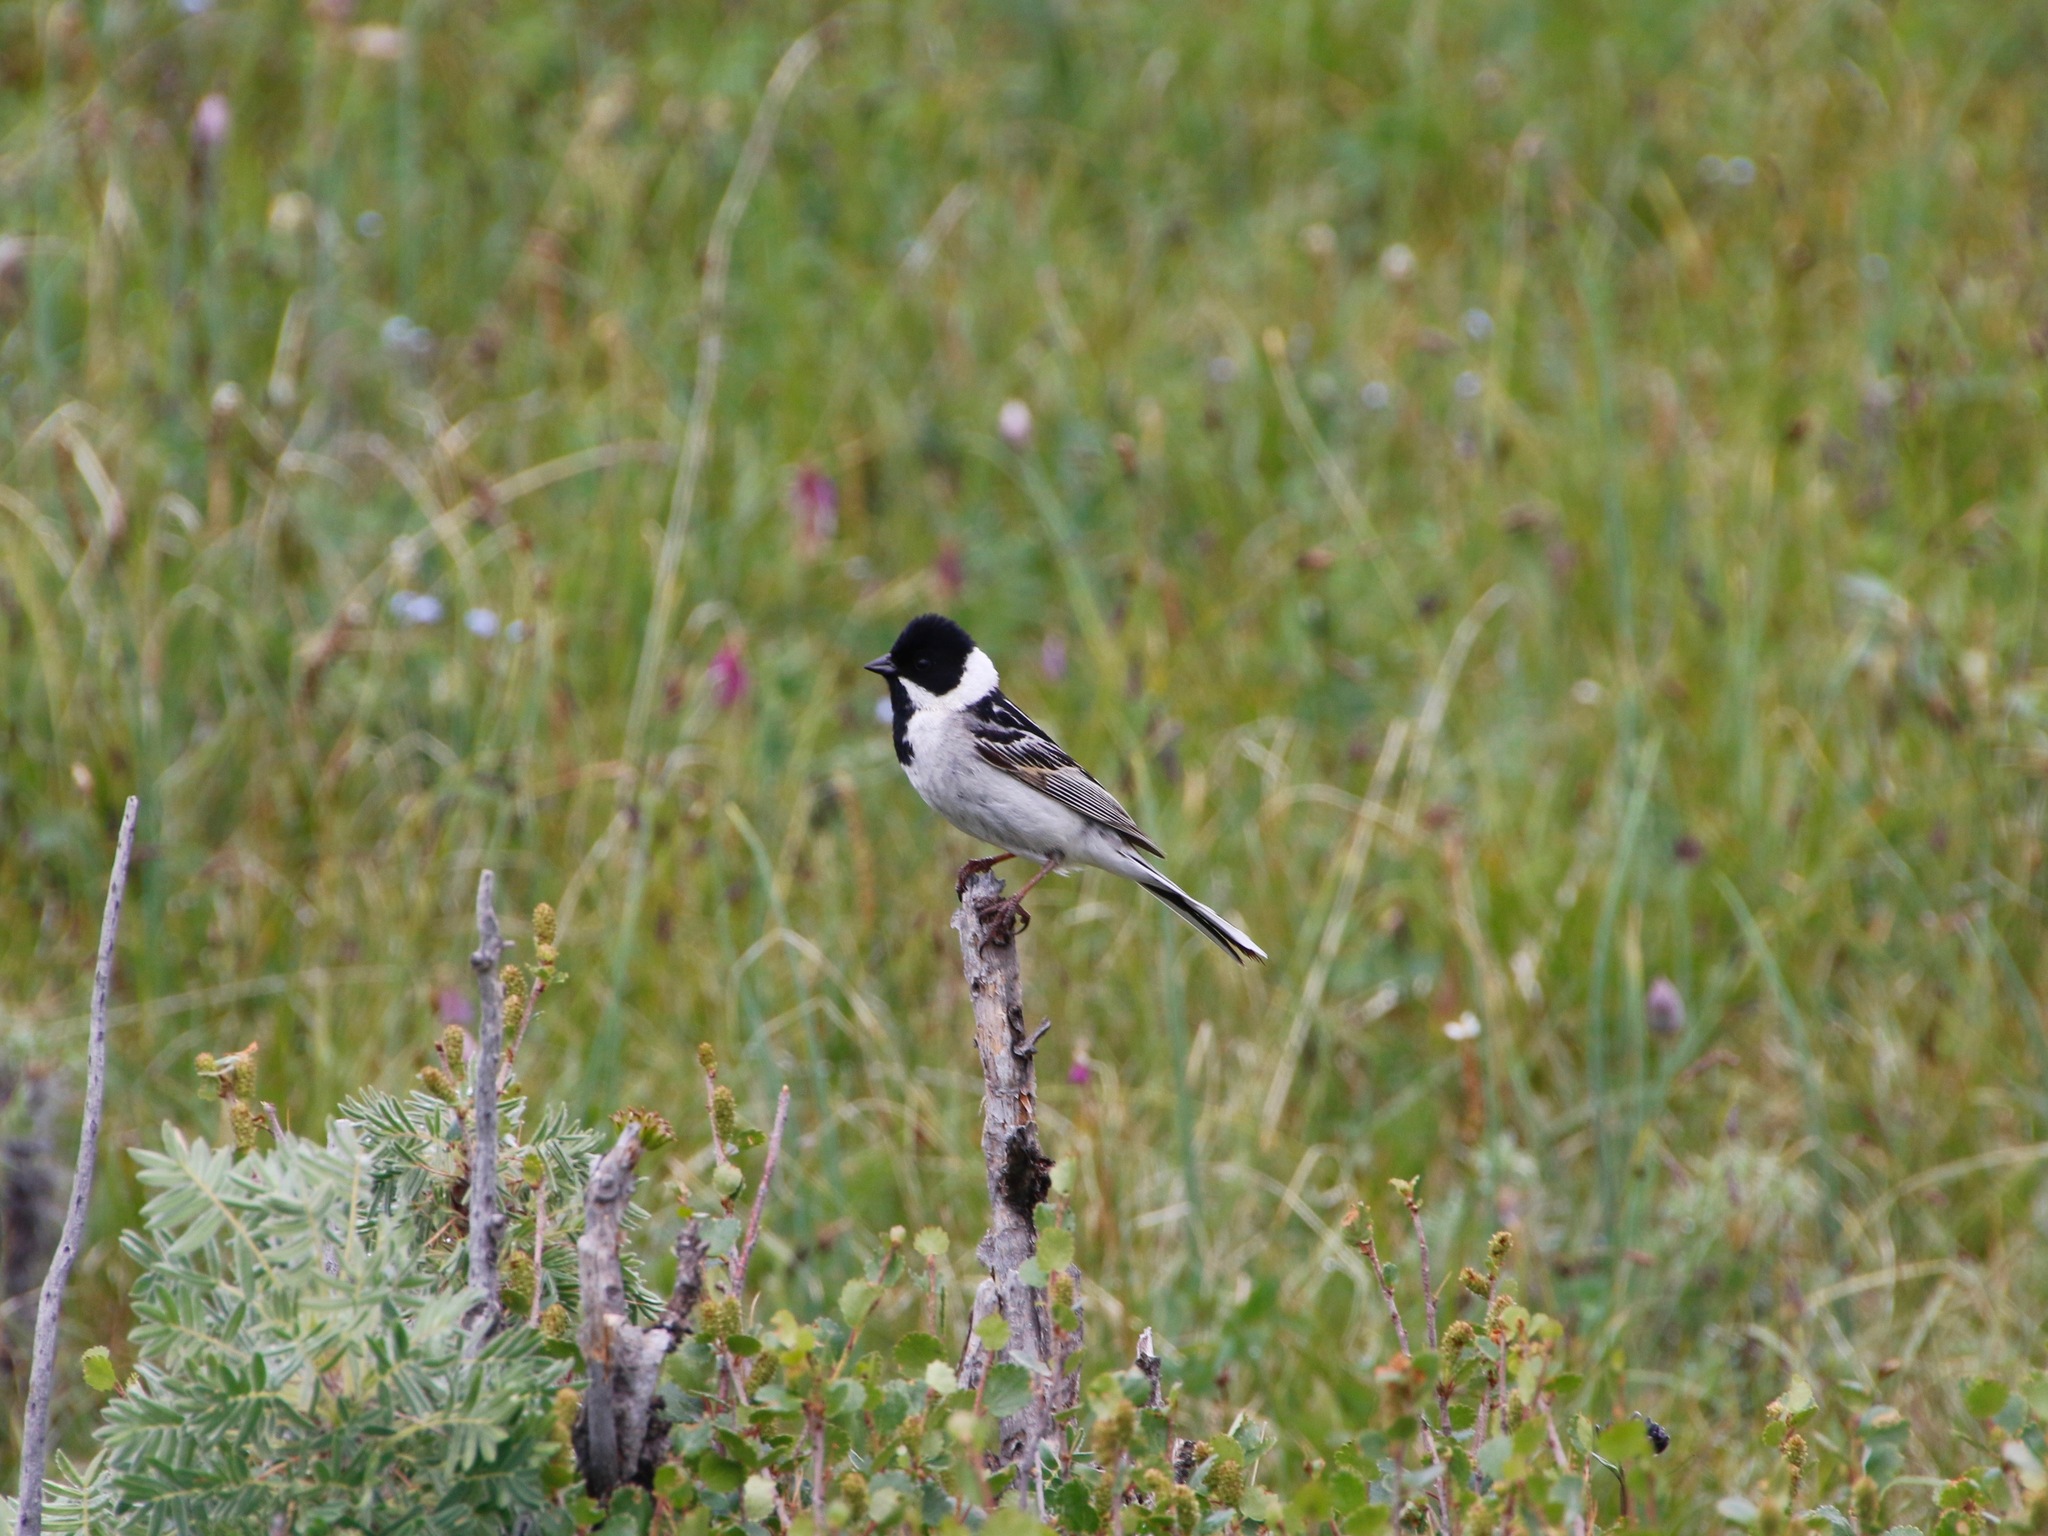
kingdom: Animalia
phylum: Chordata
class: Aves
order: Passeriformes
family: Emberizidae
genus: Emberiza
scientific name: Emberiza pallasi
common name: Pallas's reed bunting
